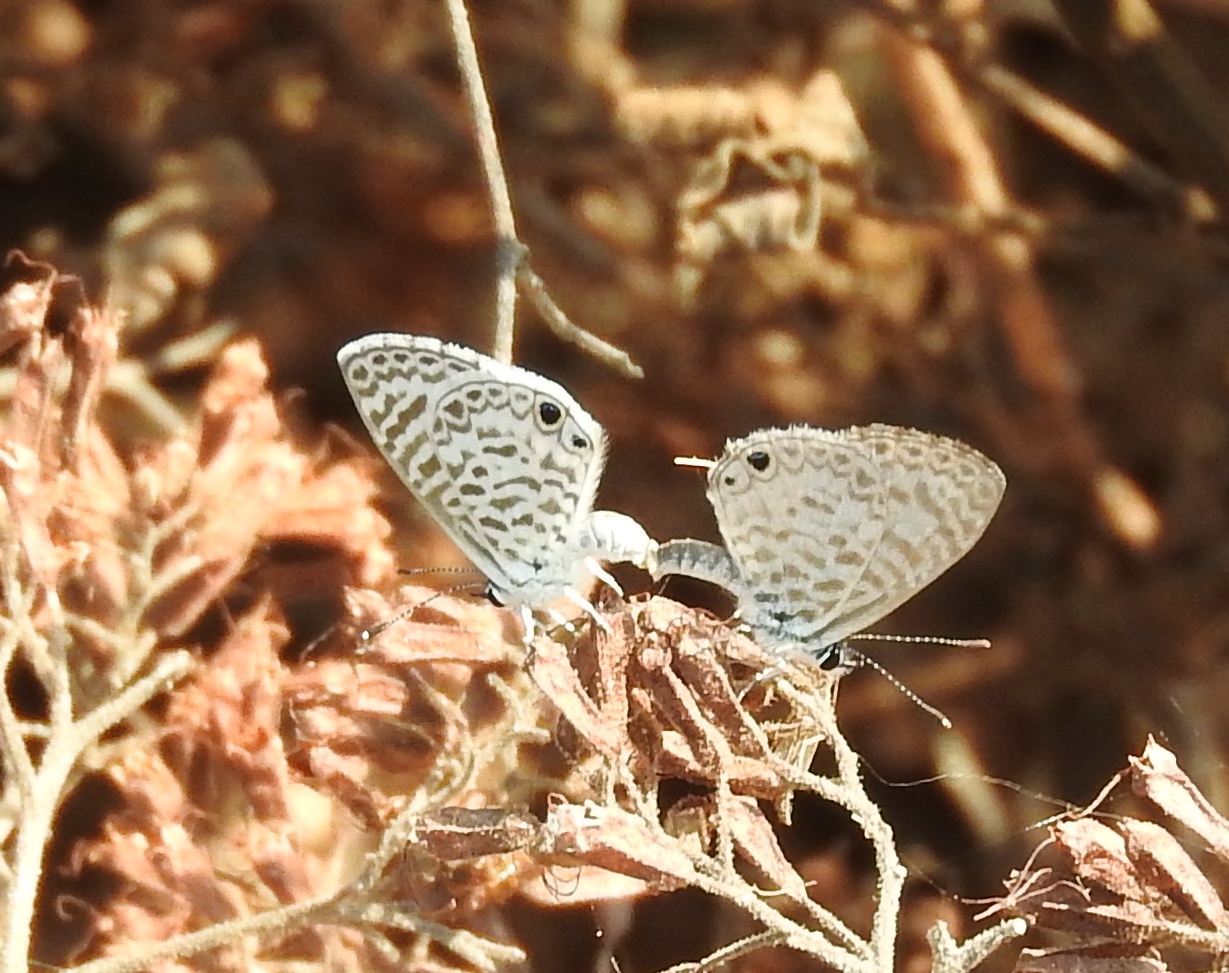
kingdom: Animalia
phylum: Arthropoda
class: Insecta
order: Lepidoptera
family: Lycaenidae
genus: Leptotes
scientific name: Leptotes cassius
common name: Cassius blue
